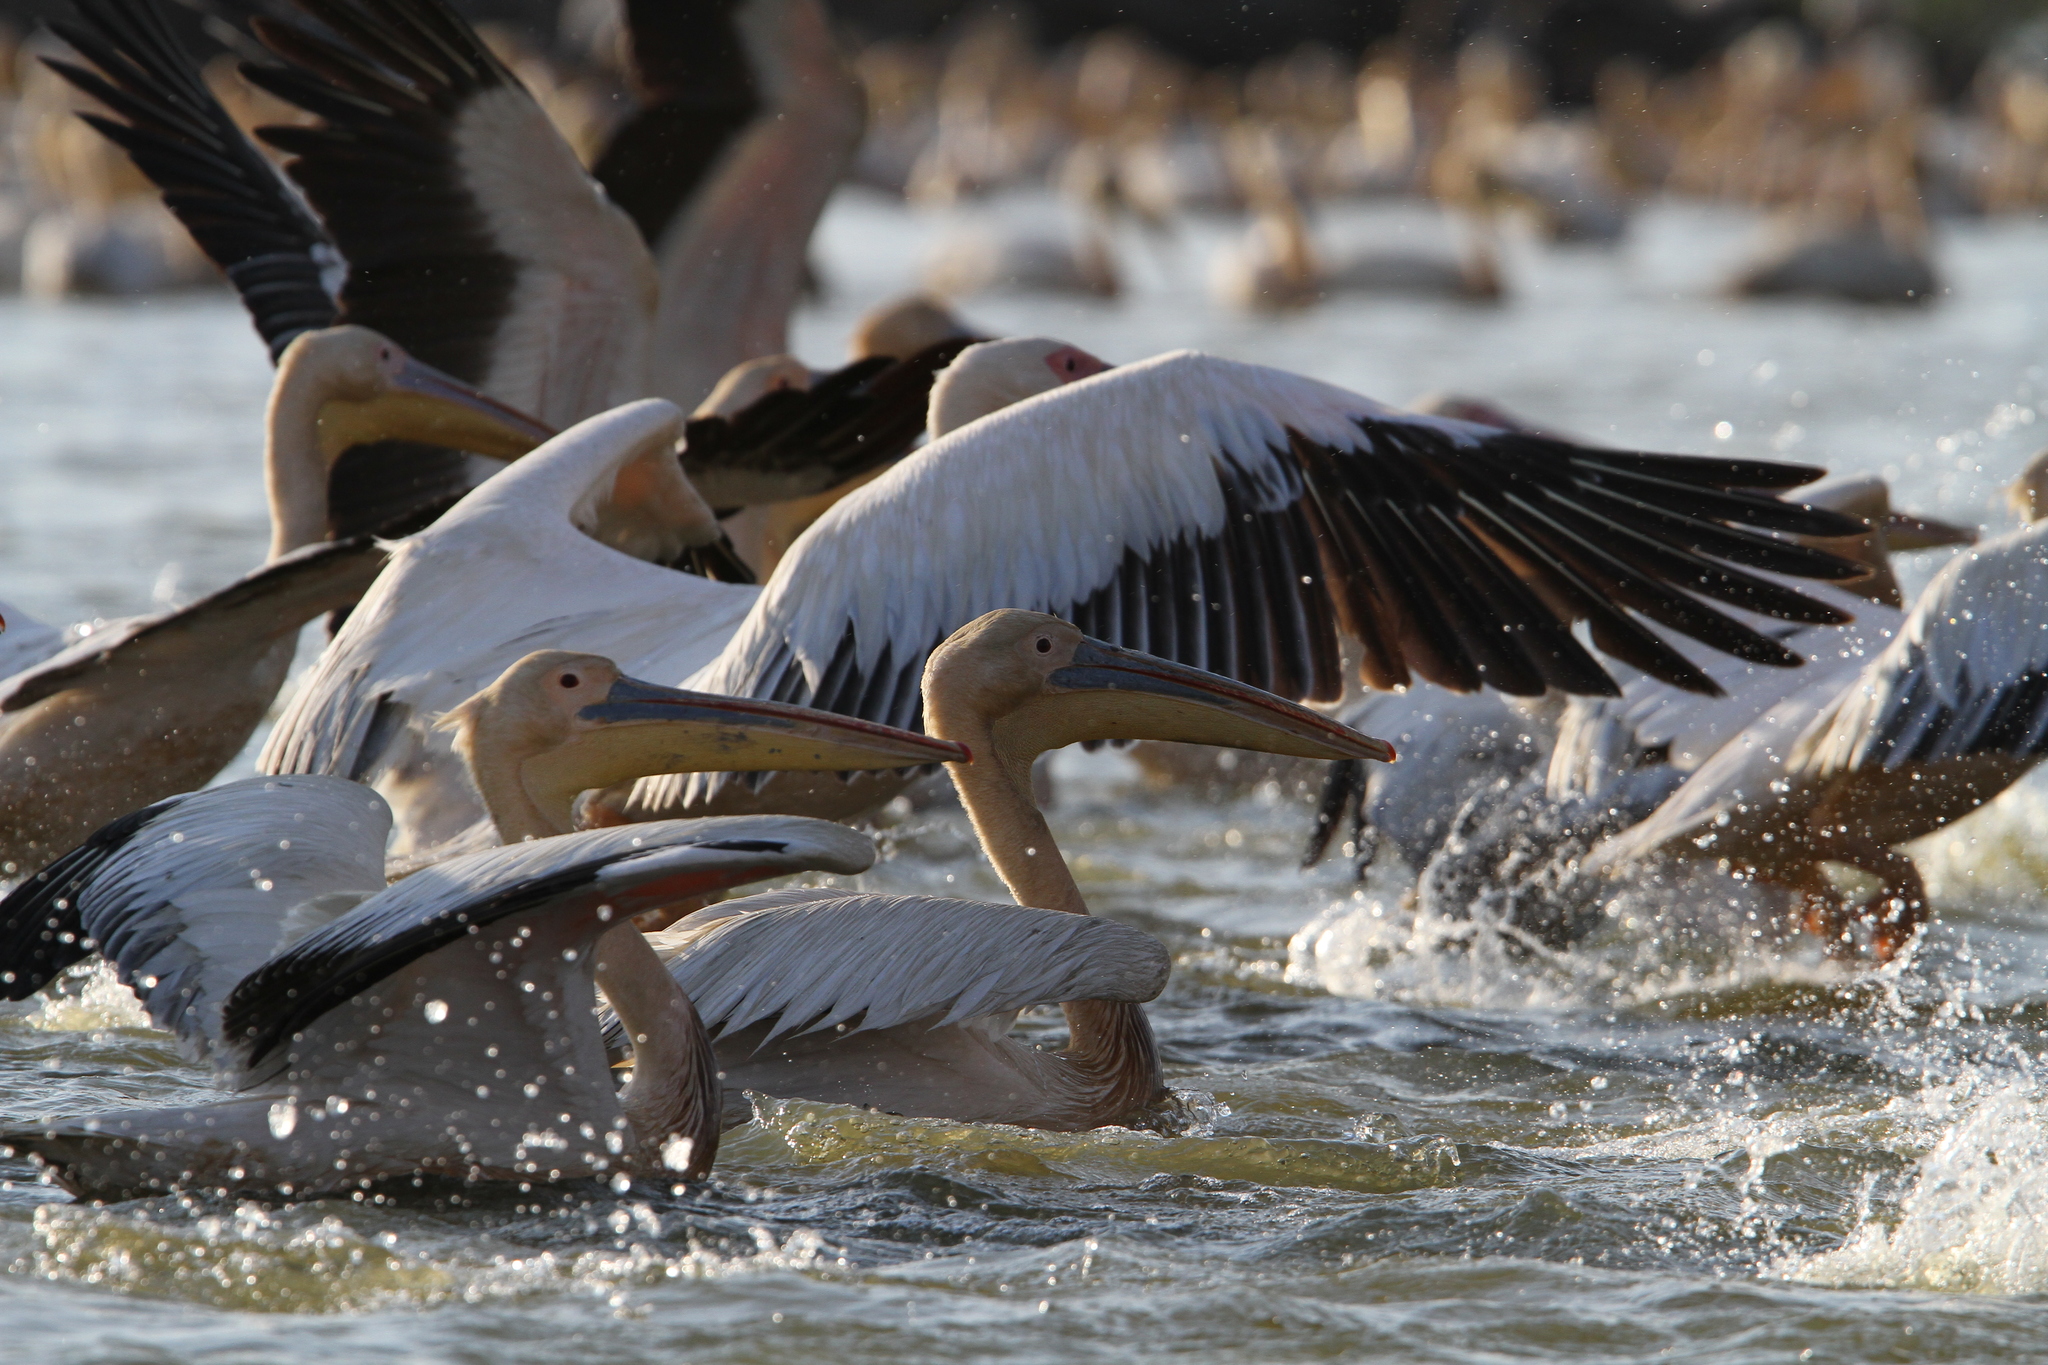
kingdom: Animalia
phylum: Chordata
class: Aves
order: Pelecaniformes
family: Pelecanidae
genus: Pelecanus
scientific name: Pelecanus onocrotalus
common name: Great white pelican
